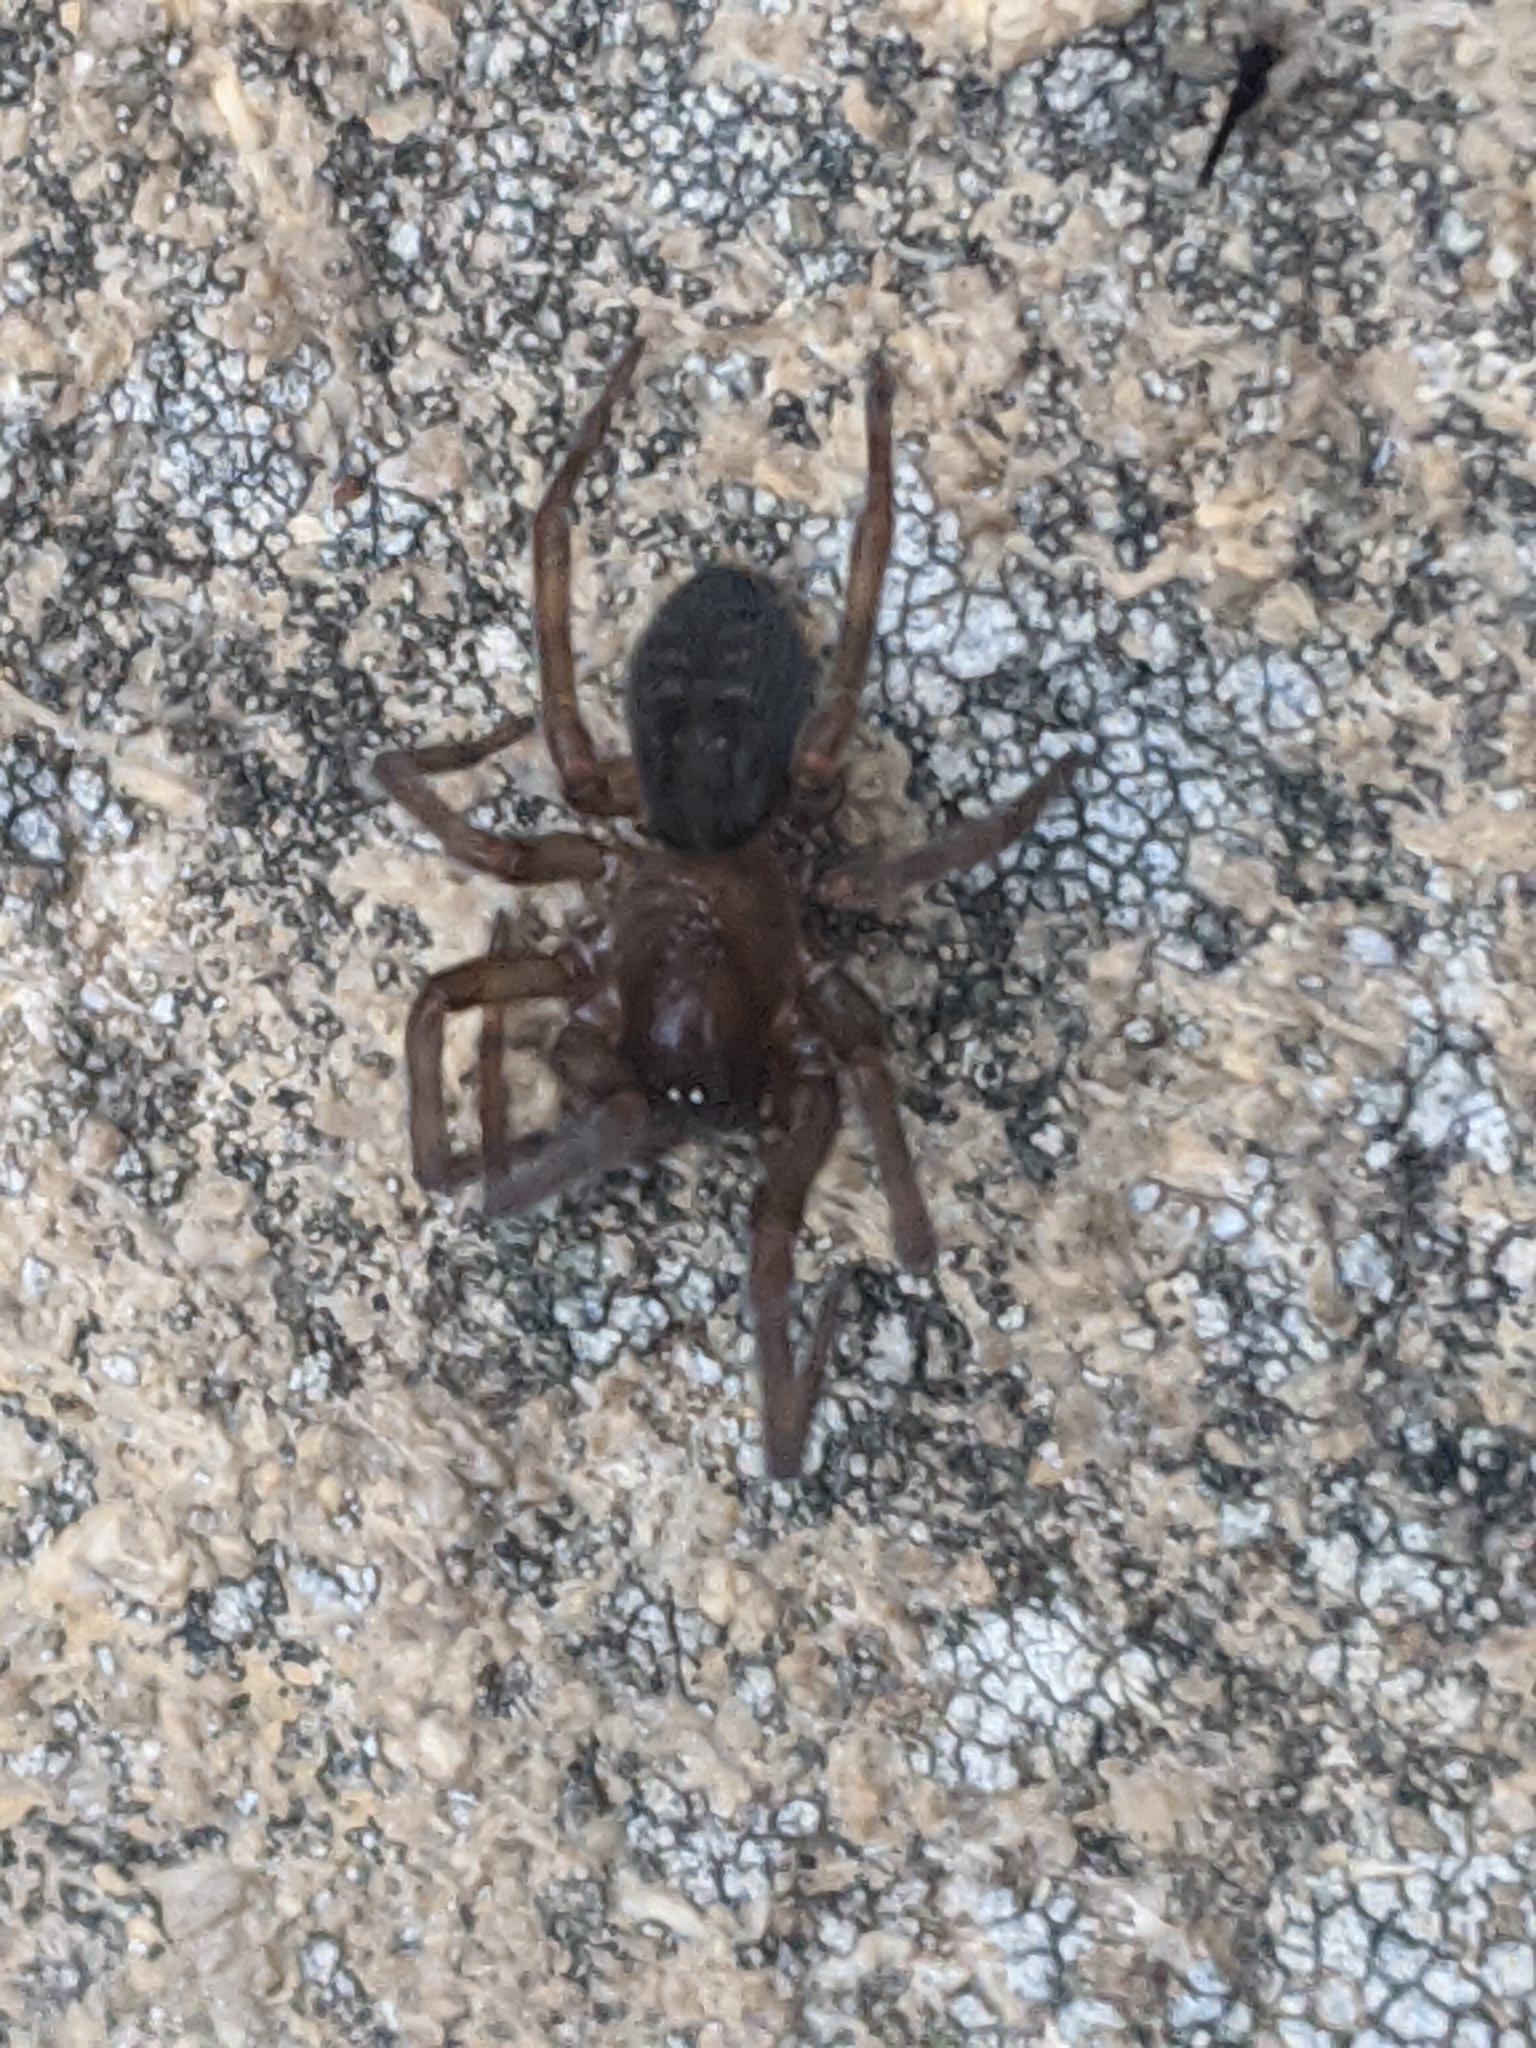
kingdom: Animalia
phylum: Arthropoda
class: Arachnida
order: Araneae
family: Amaurobiidae
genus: Amaurobius
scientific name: Amaurobius ferox
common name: Black laceweaver
